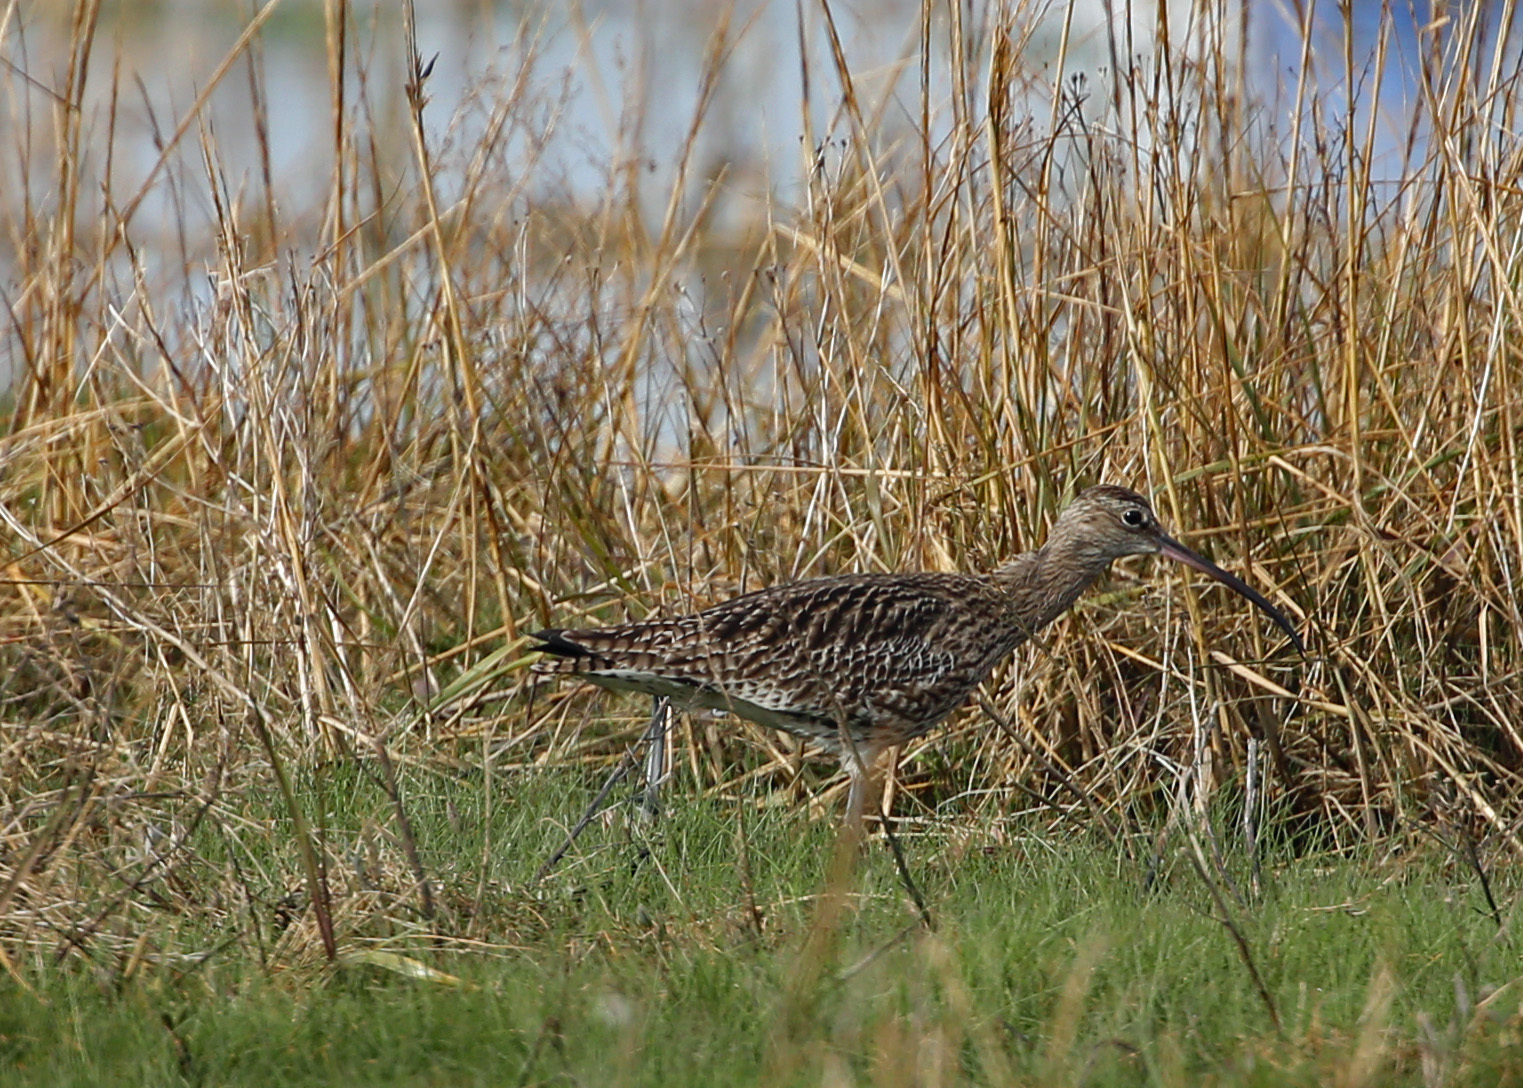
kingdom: Animalia
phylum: Chordata
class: Aves
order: Charadriiformes
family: Scolopacidae
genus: Numenius
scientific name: Numenius arquata
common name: Eurasian curlew
